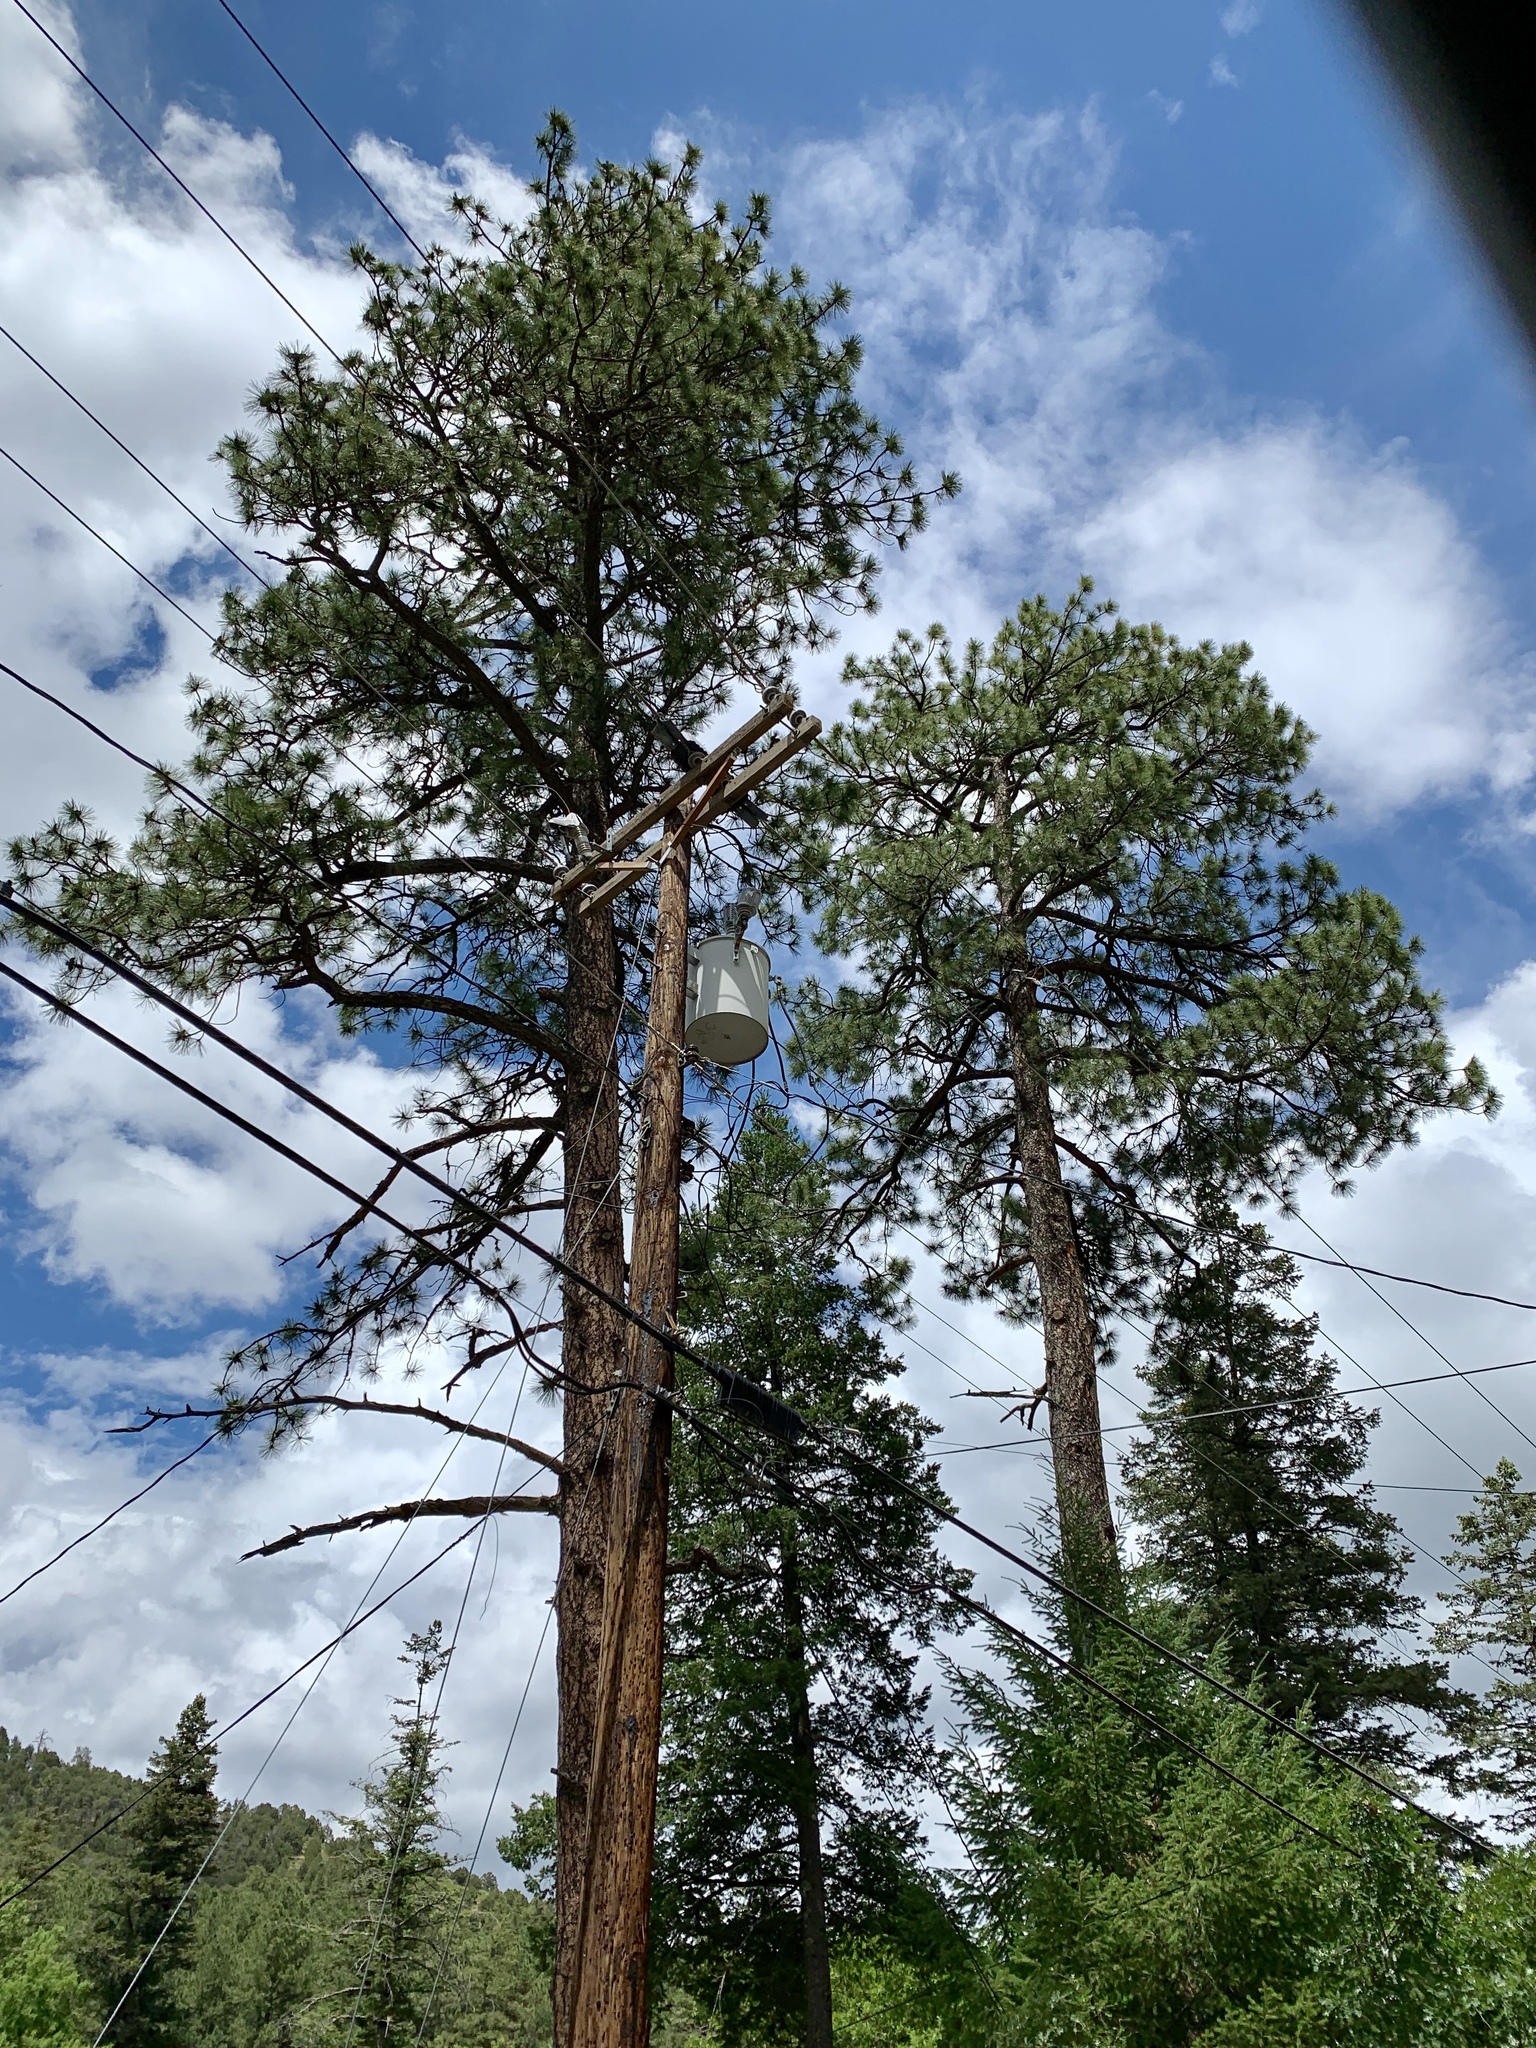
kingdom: Plantae
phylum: Tracheophyta
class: Pinopsida
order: Pinales
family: Pinaceae
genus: Pinus
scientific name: Pinus ponderosa
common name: Western yellow-pine
